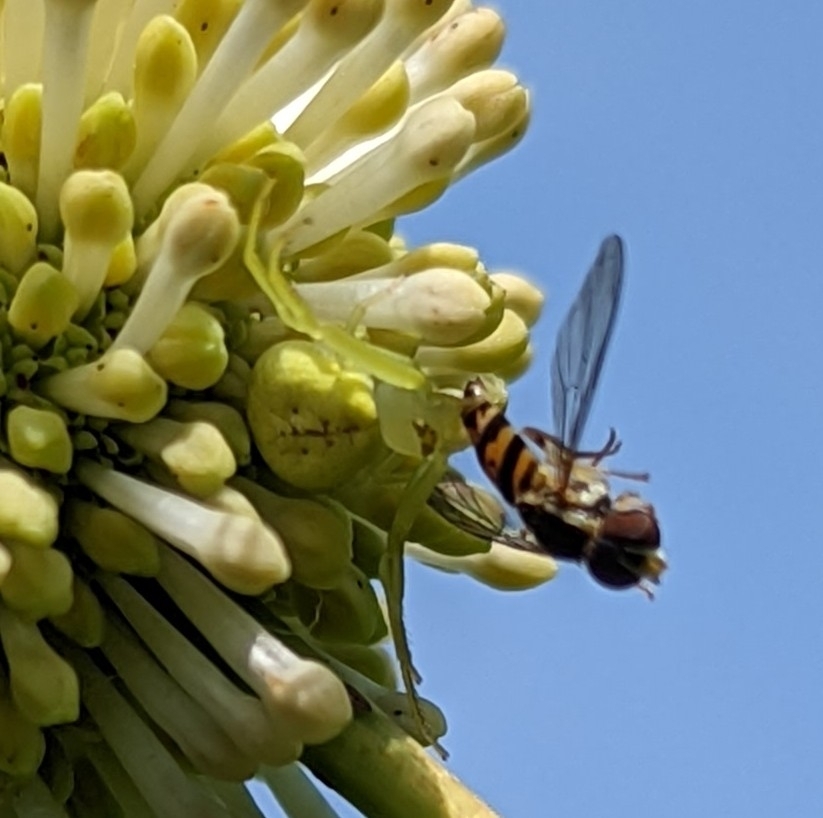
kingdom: Animalia
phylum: Arthropoda
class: Insecta
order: Diptera
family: Syrphidae
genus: Toxomerus
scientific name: Toxomerus geminatus
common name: Eastern calligrapher
